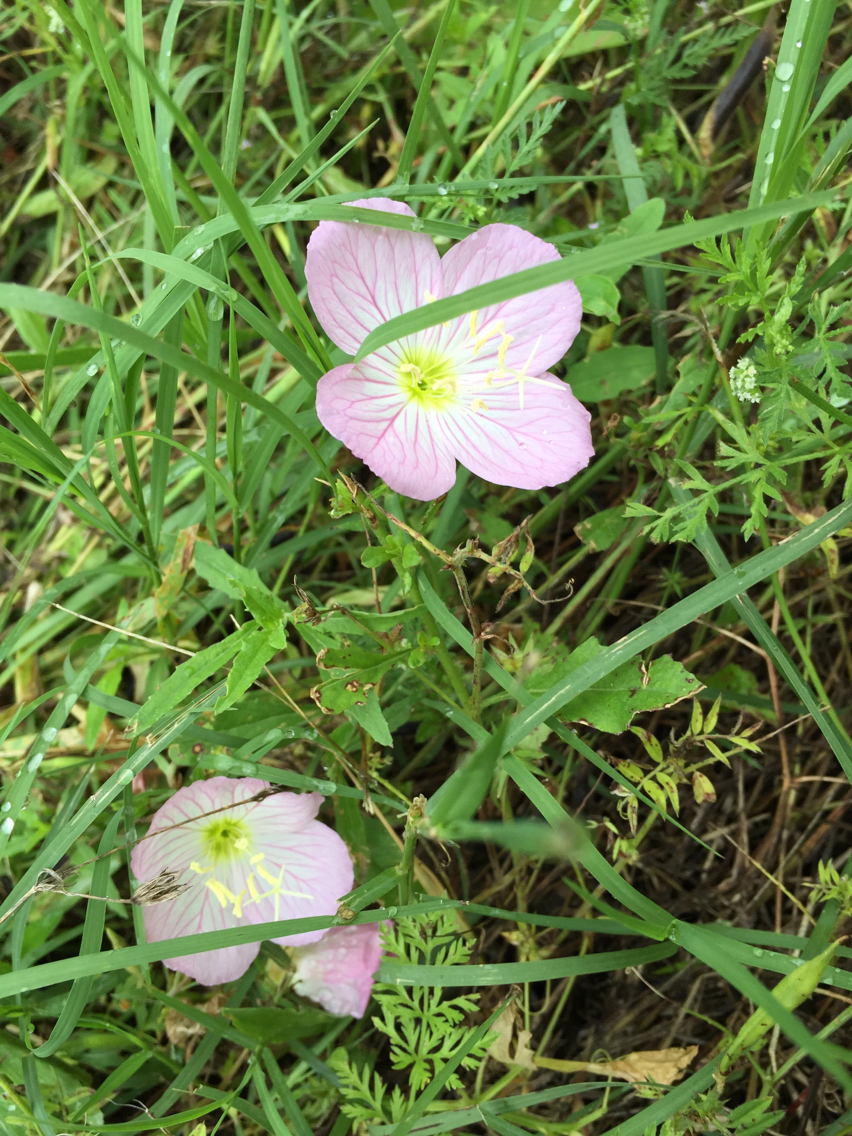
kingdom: Plantae
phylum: Tracheophyta
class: Magnoliopsida
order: Myrtales
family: Onagraceae
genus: Oenothera
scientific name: Oenothera speciosa
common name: White evening-primrose
